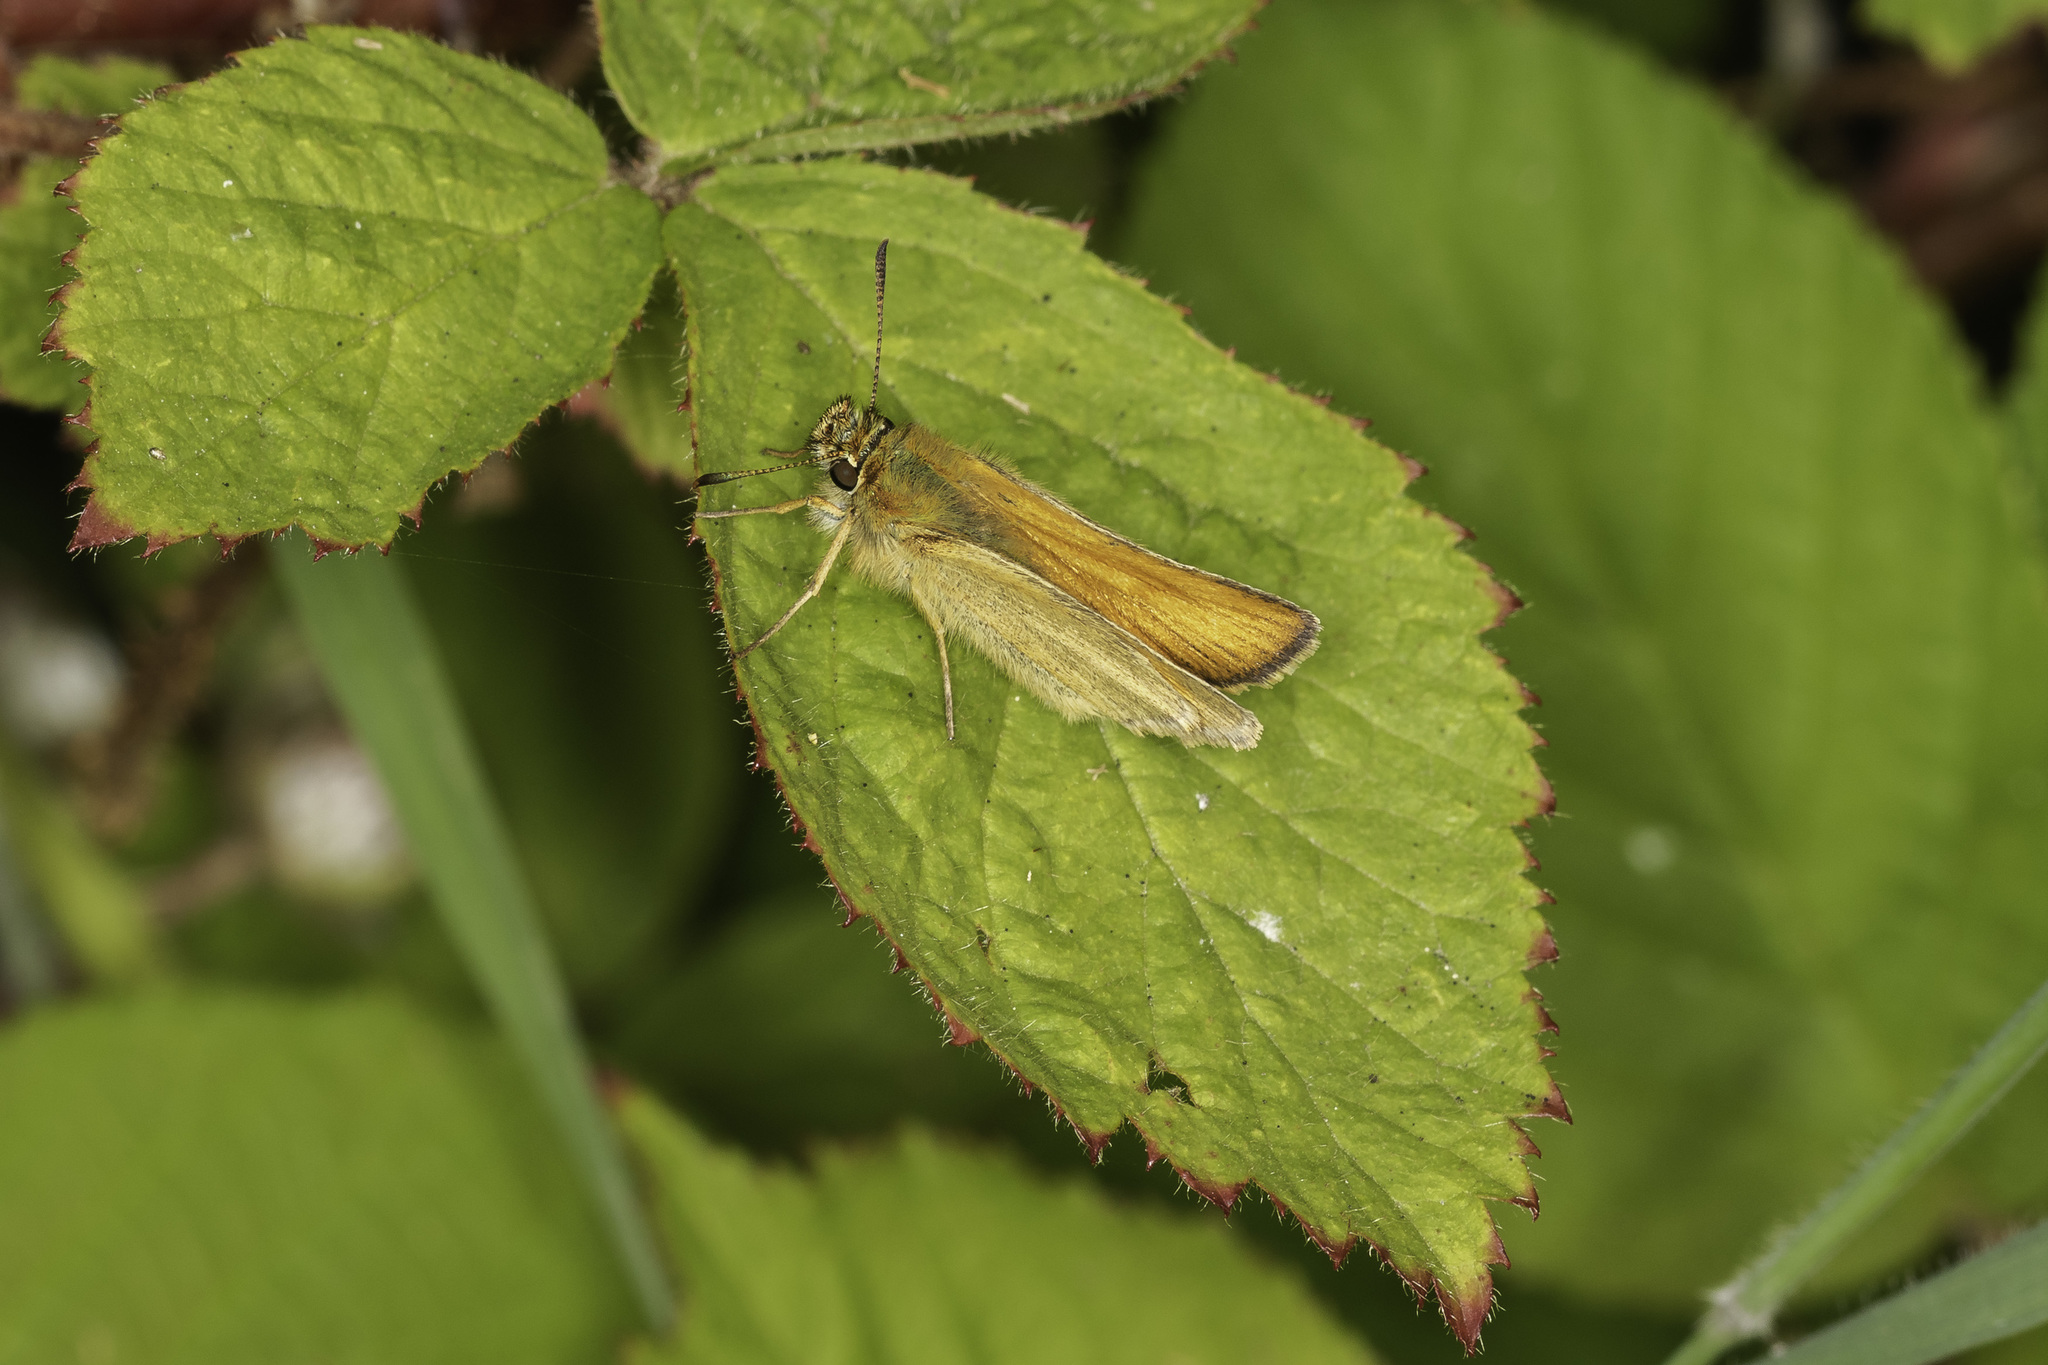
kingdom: Animalia
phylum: Arthropoda
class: Insecta
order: Lepidoptera
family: Hesperiidae
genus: Thymelicus
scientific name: Thymelicus sylvestris
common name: Small skipper
